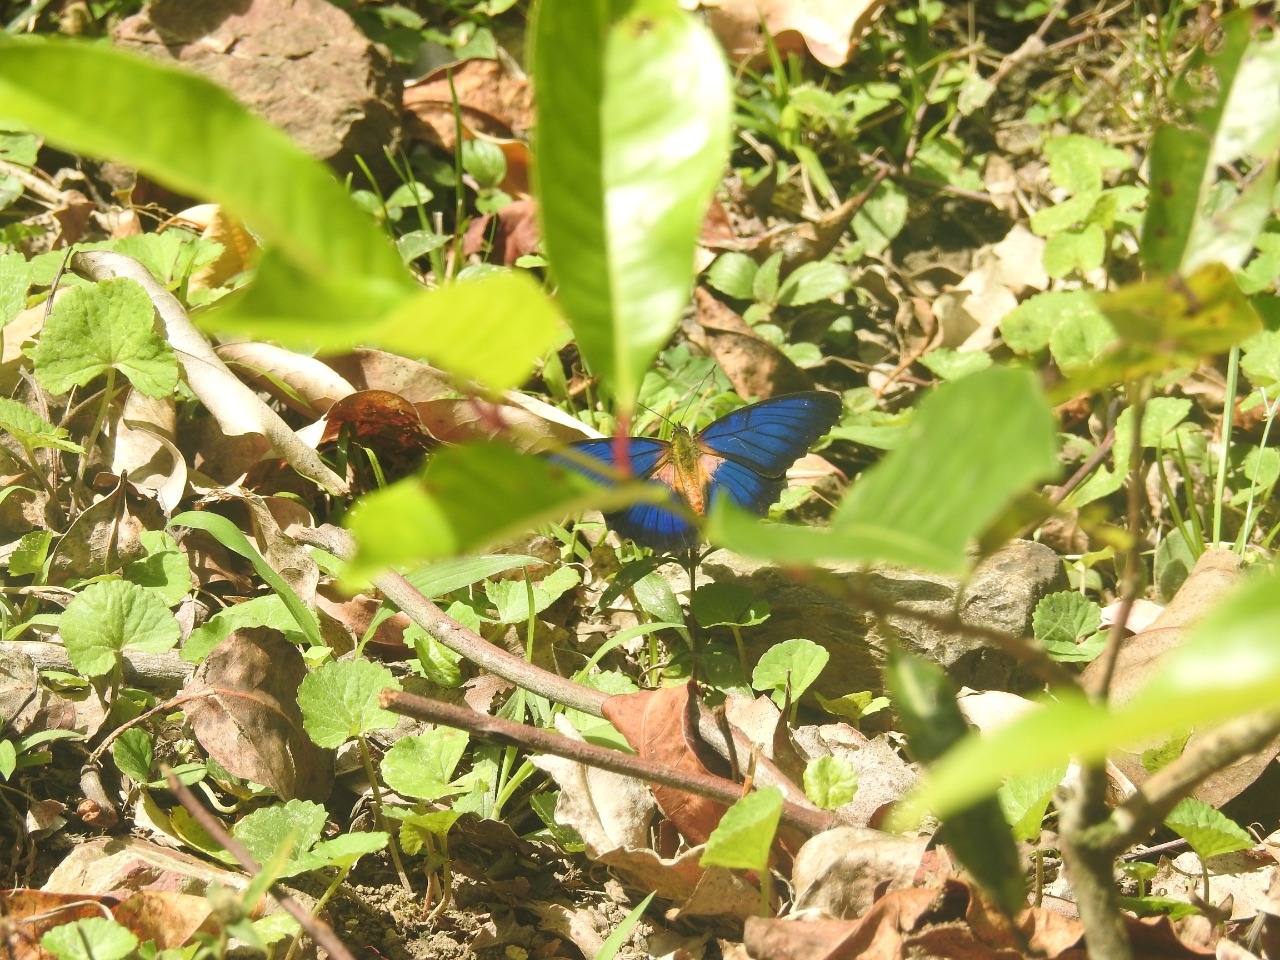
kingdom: Animalia
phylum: Arthropoda
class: Insecta
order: Lepidoptera
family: Nymphalidae
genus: Cethosia
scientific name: Cethosia lamarckii
